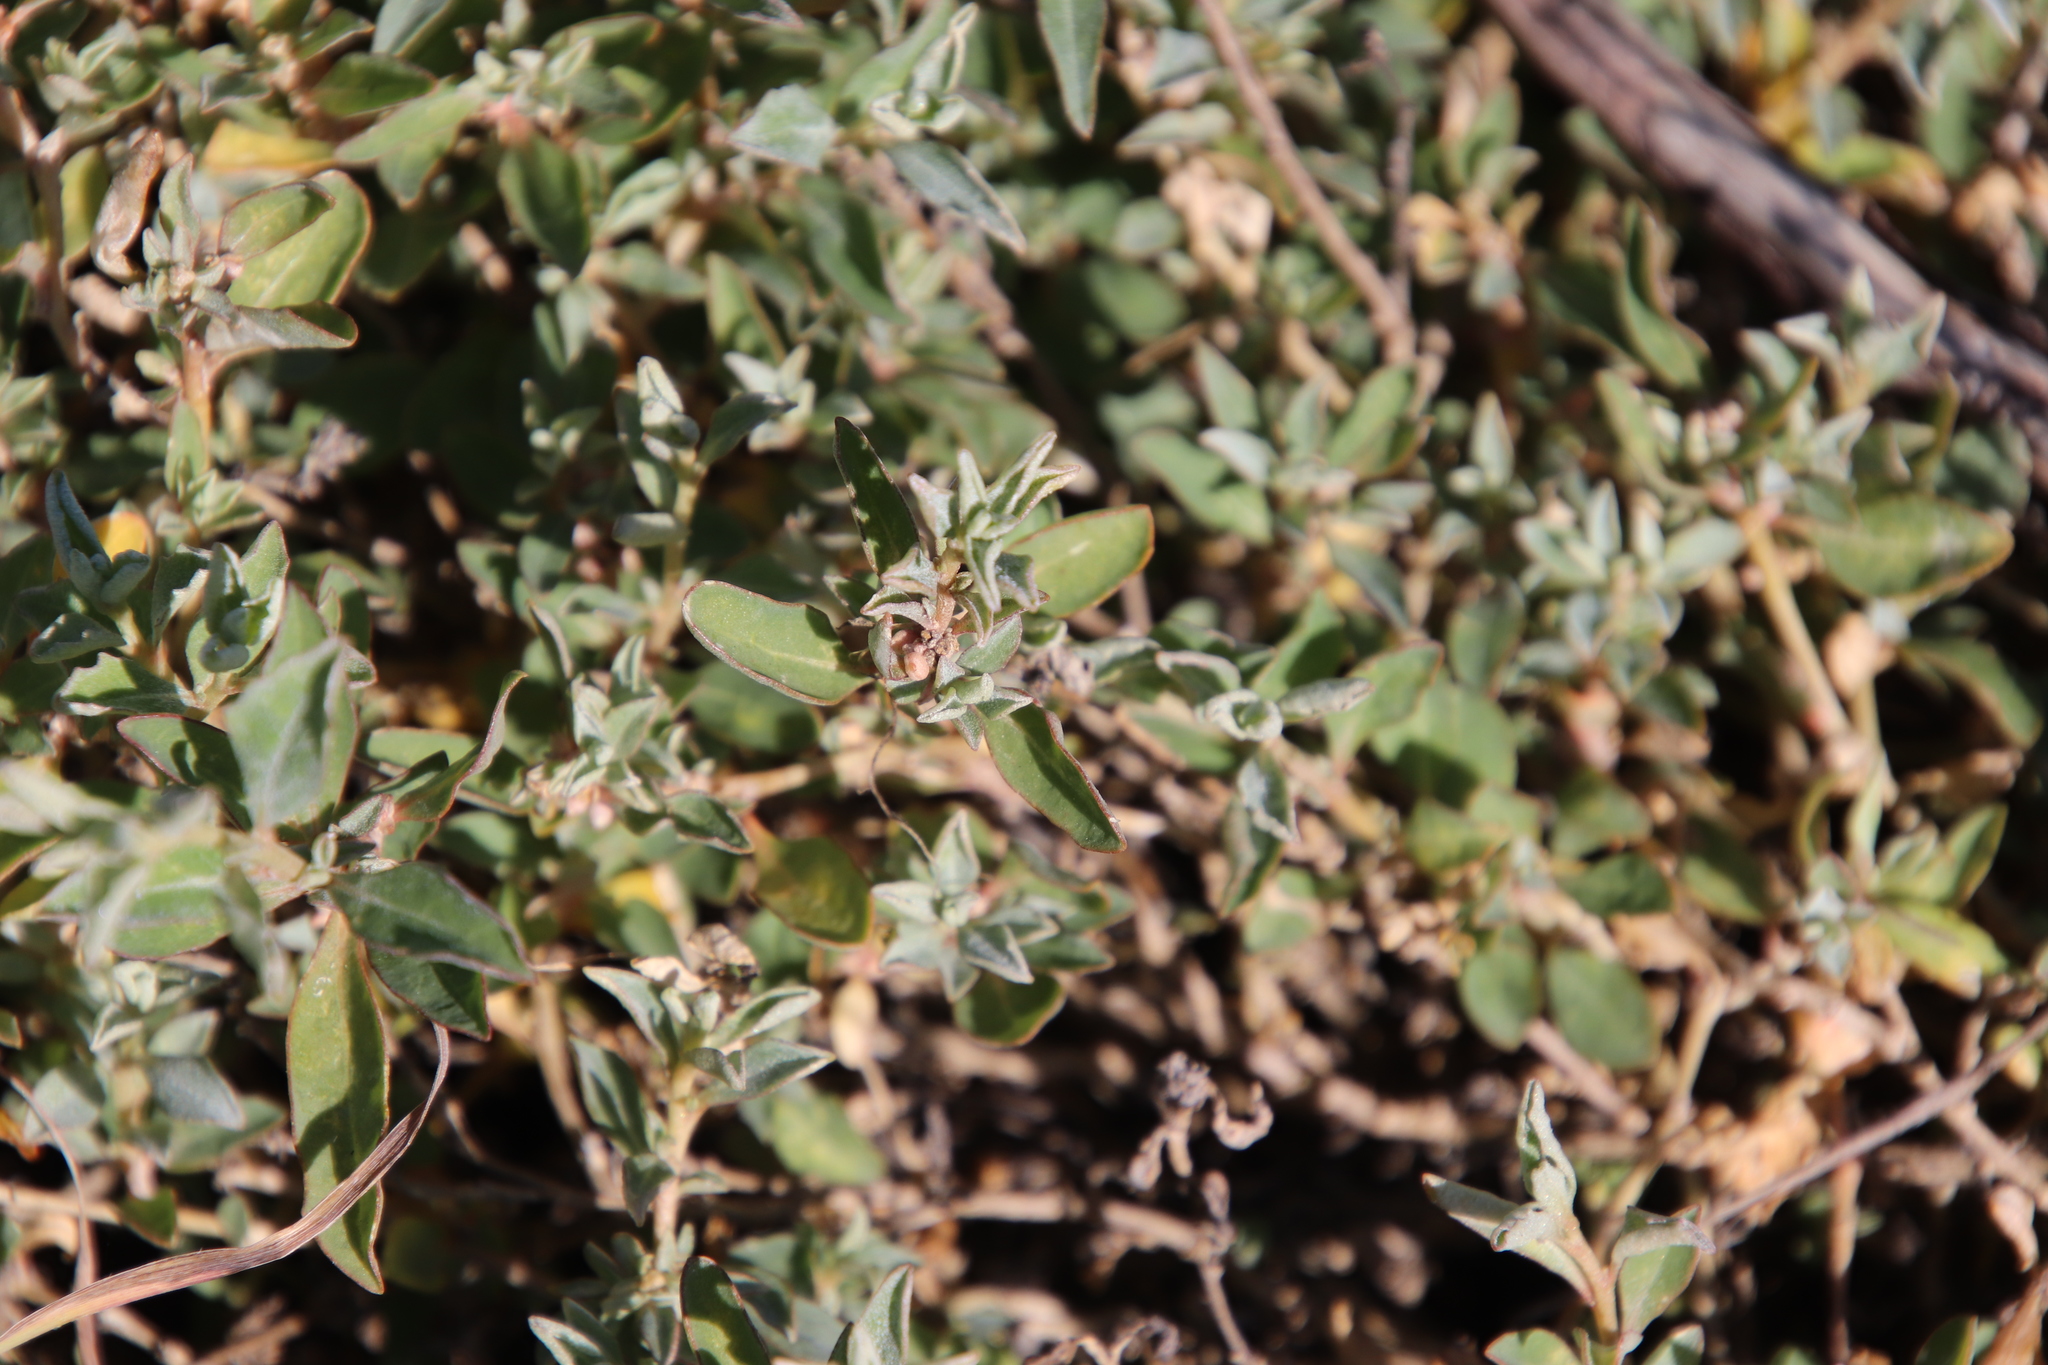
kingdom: Plantae
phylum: Tracheophyta
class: Magnoliopsida
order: Caryophyllales
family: Amaranthaceae
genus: Atriplex
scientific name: Atriplex semibaccata
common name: Australian saltbush
